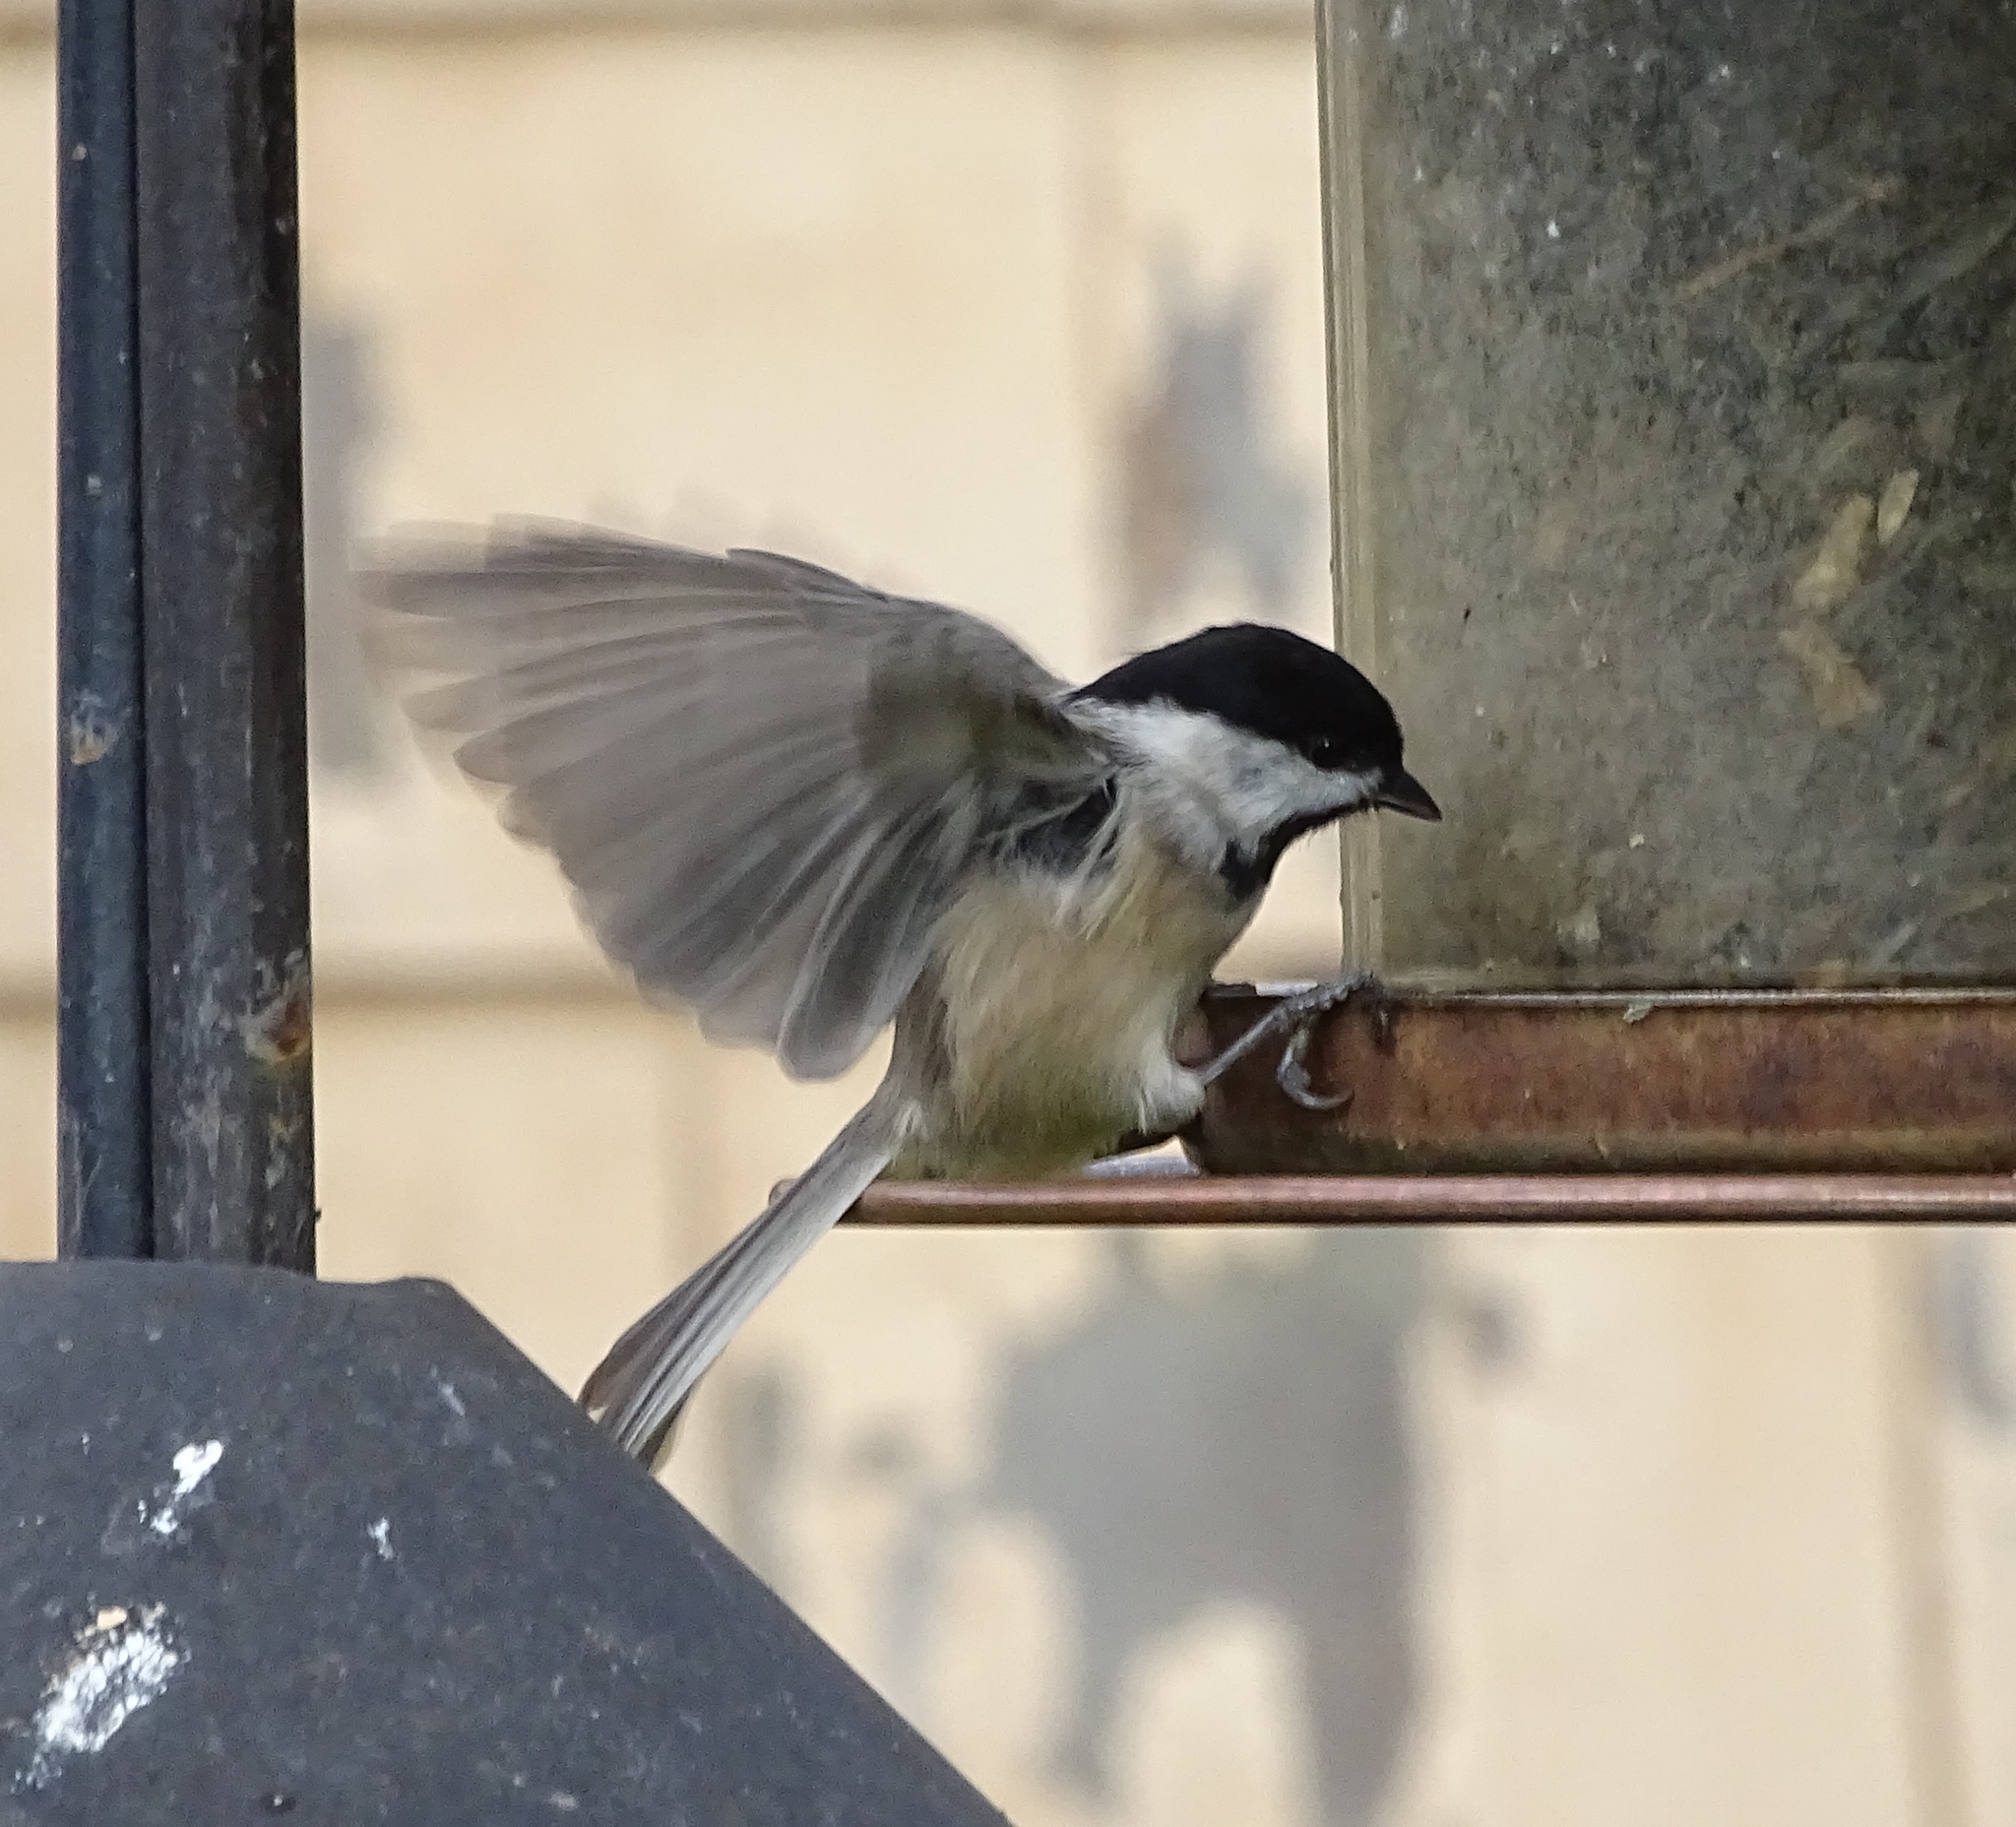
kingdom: Animalia
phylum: Chordata
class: Aves
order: Passeriformes
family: Paridae
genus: Poecile
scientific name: Poecile carolinensis
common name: Carolina chickadee
